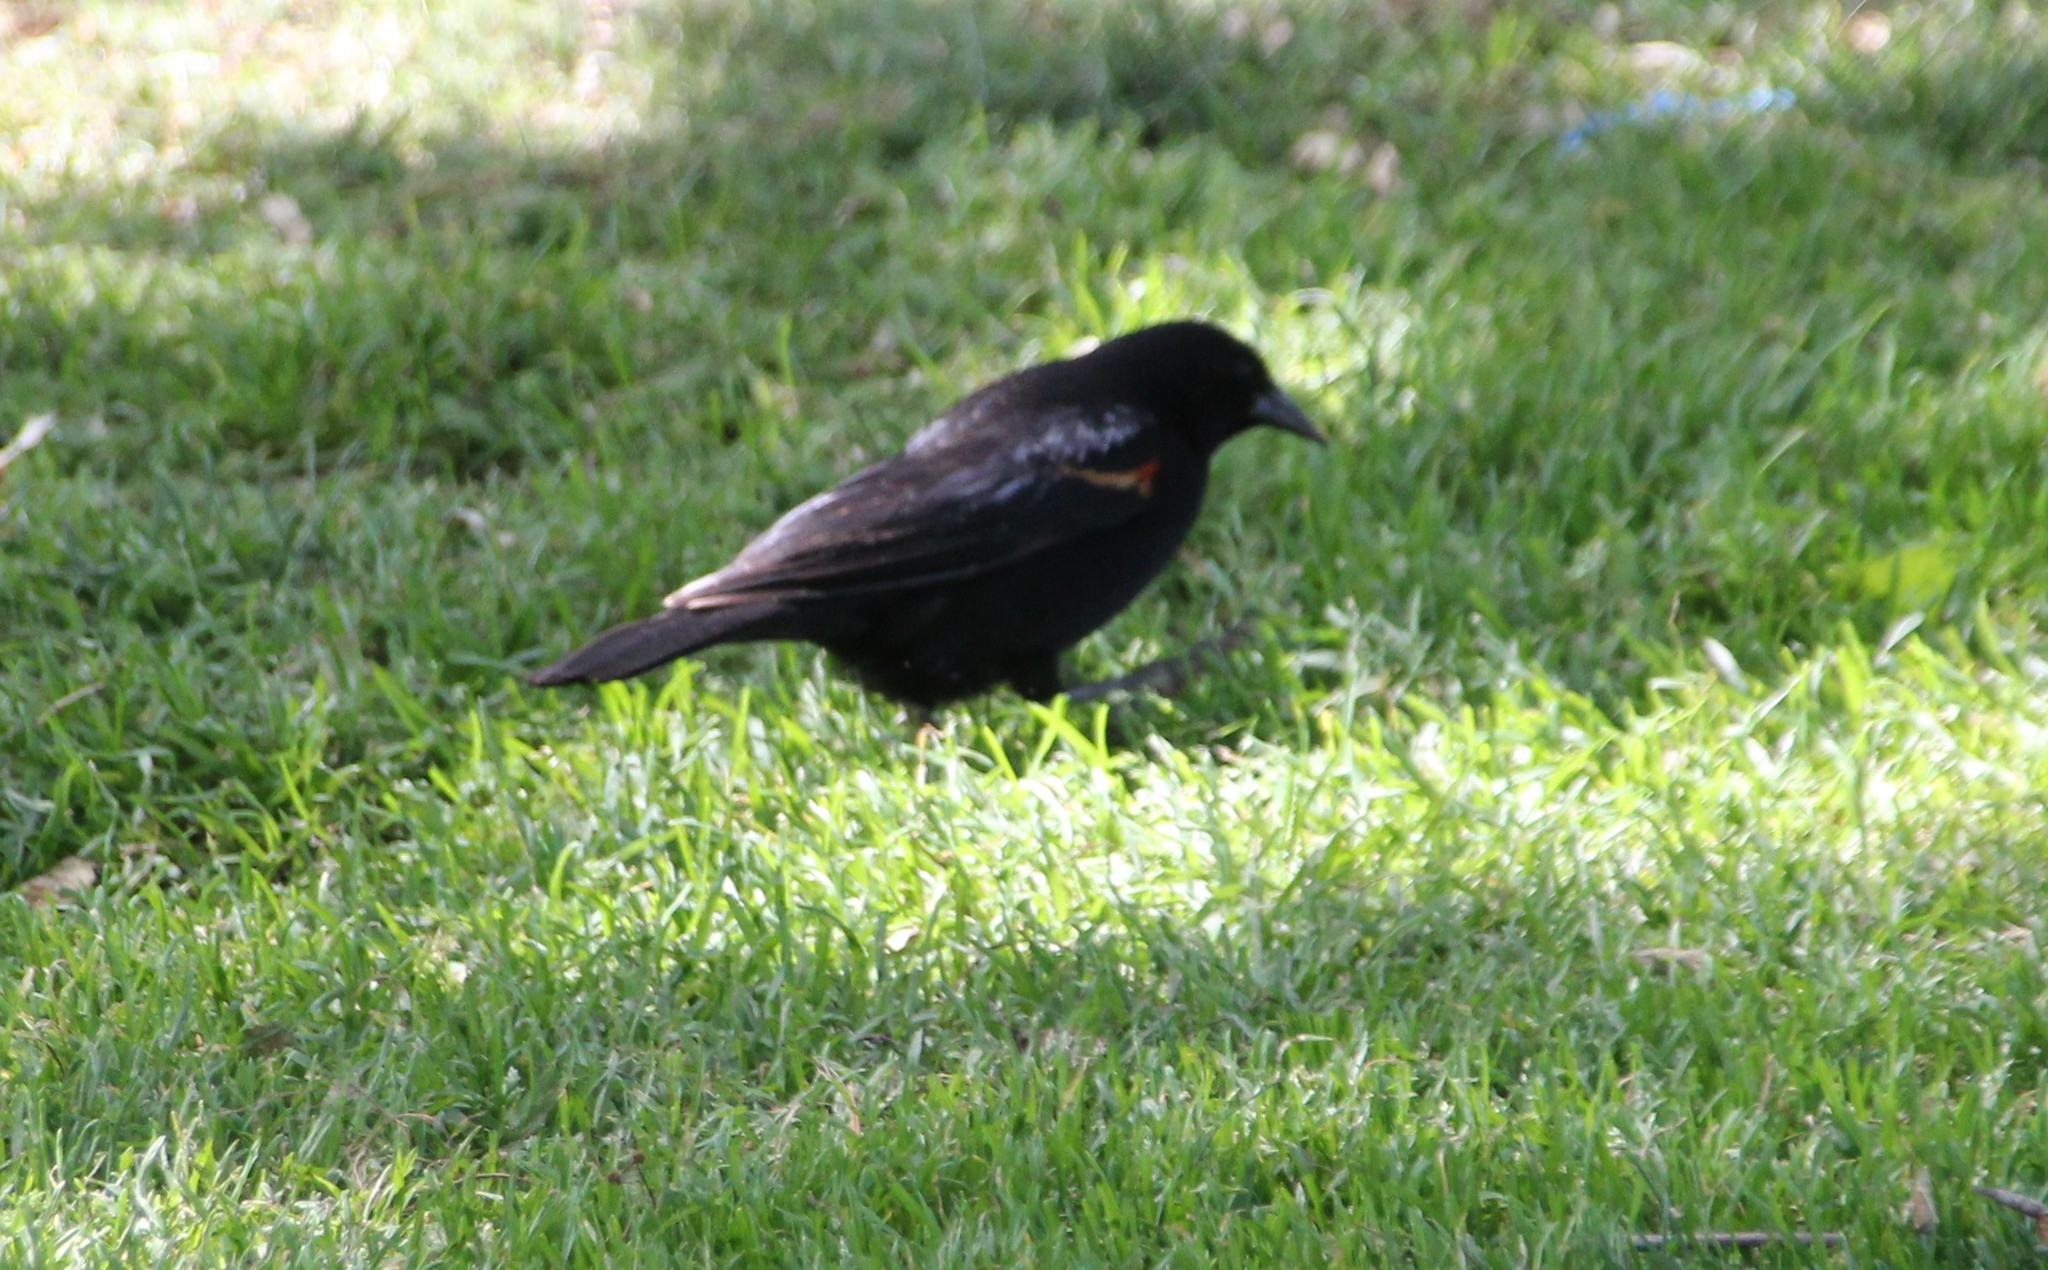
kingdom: Animalia
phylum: Chordata
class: Aves
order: Passeriformes
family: Icteridae
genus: Agelaius
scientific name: Agelaius phoeniceus
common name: Red-winged blackbird
